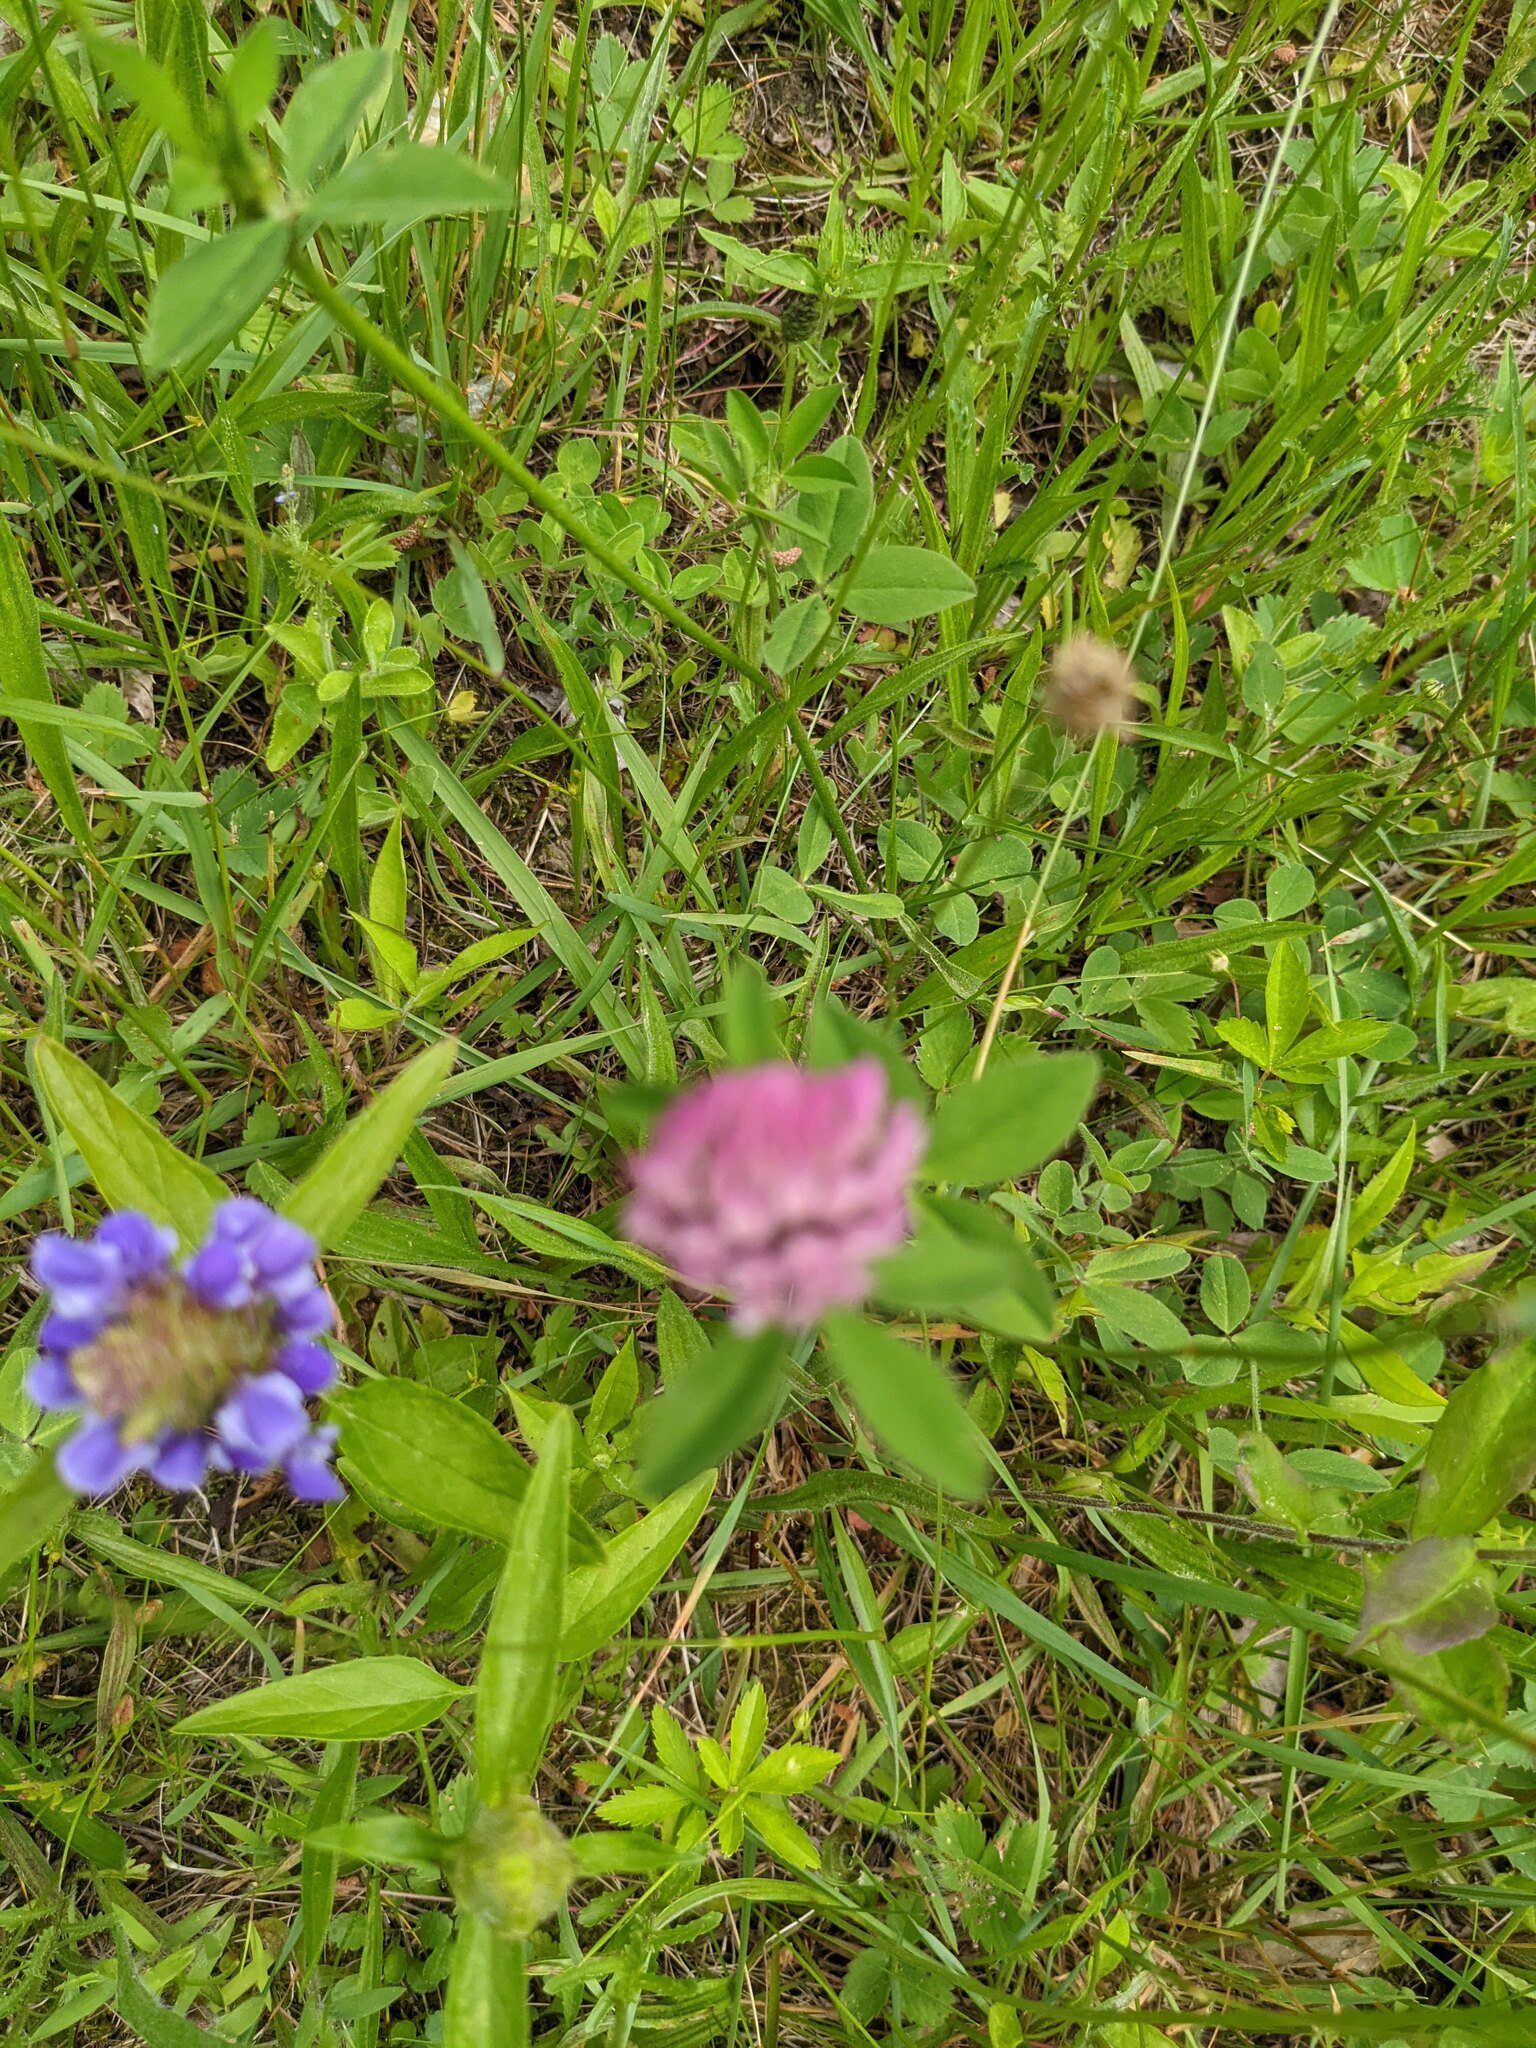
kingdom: Plantae
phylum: Tracheophyta
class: Magnoliopsida
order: Fabales
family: Fabaceae
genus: Trifolium
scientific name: Trifolium pratense
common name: Red clover
